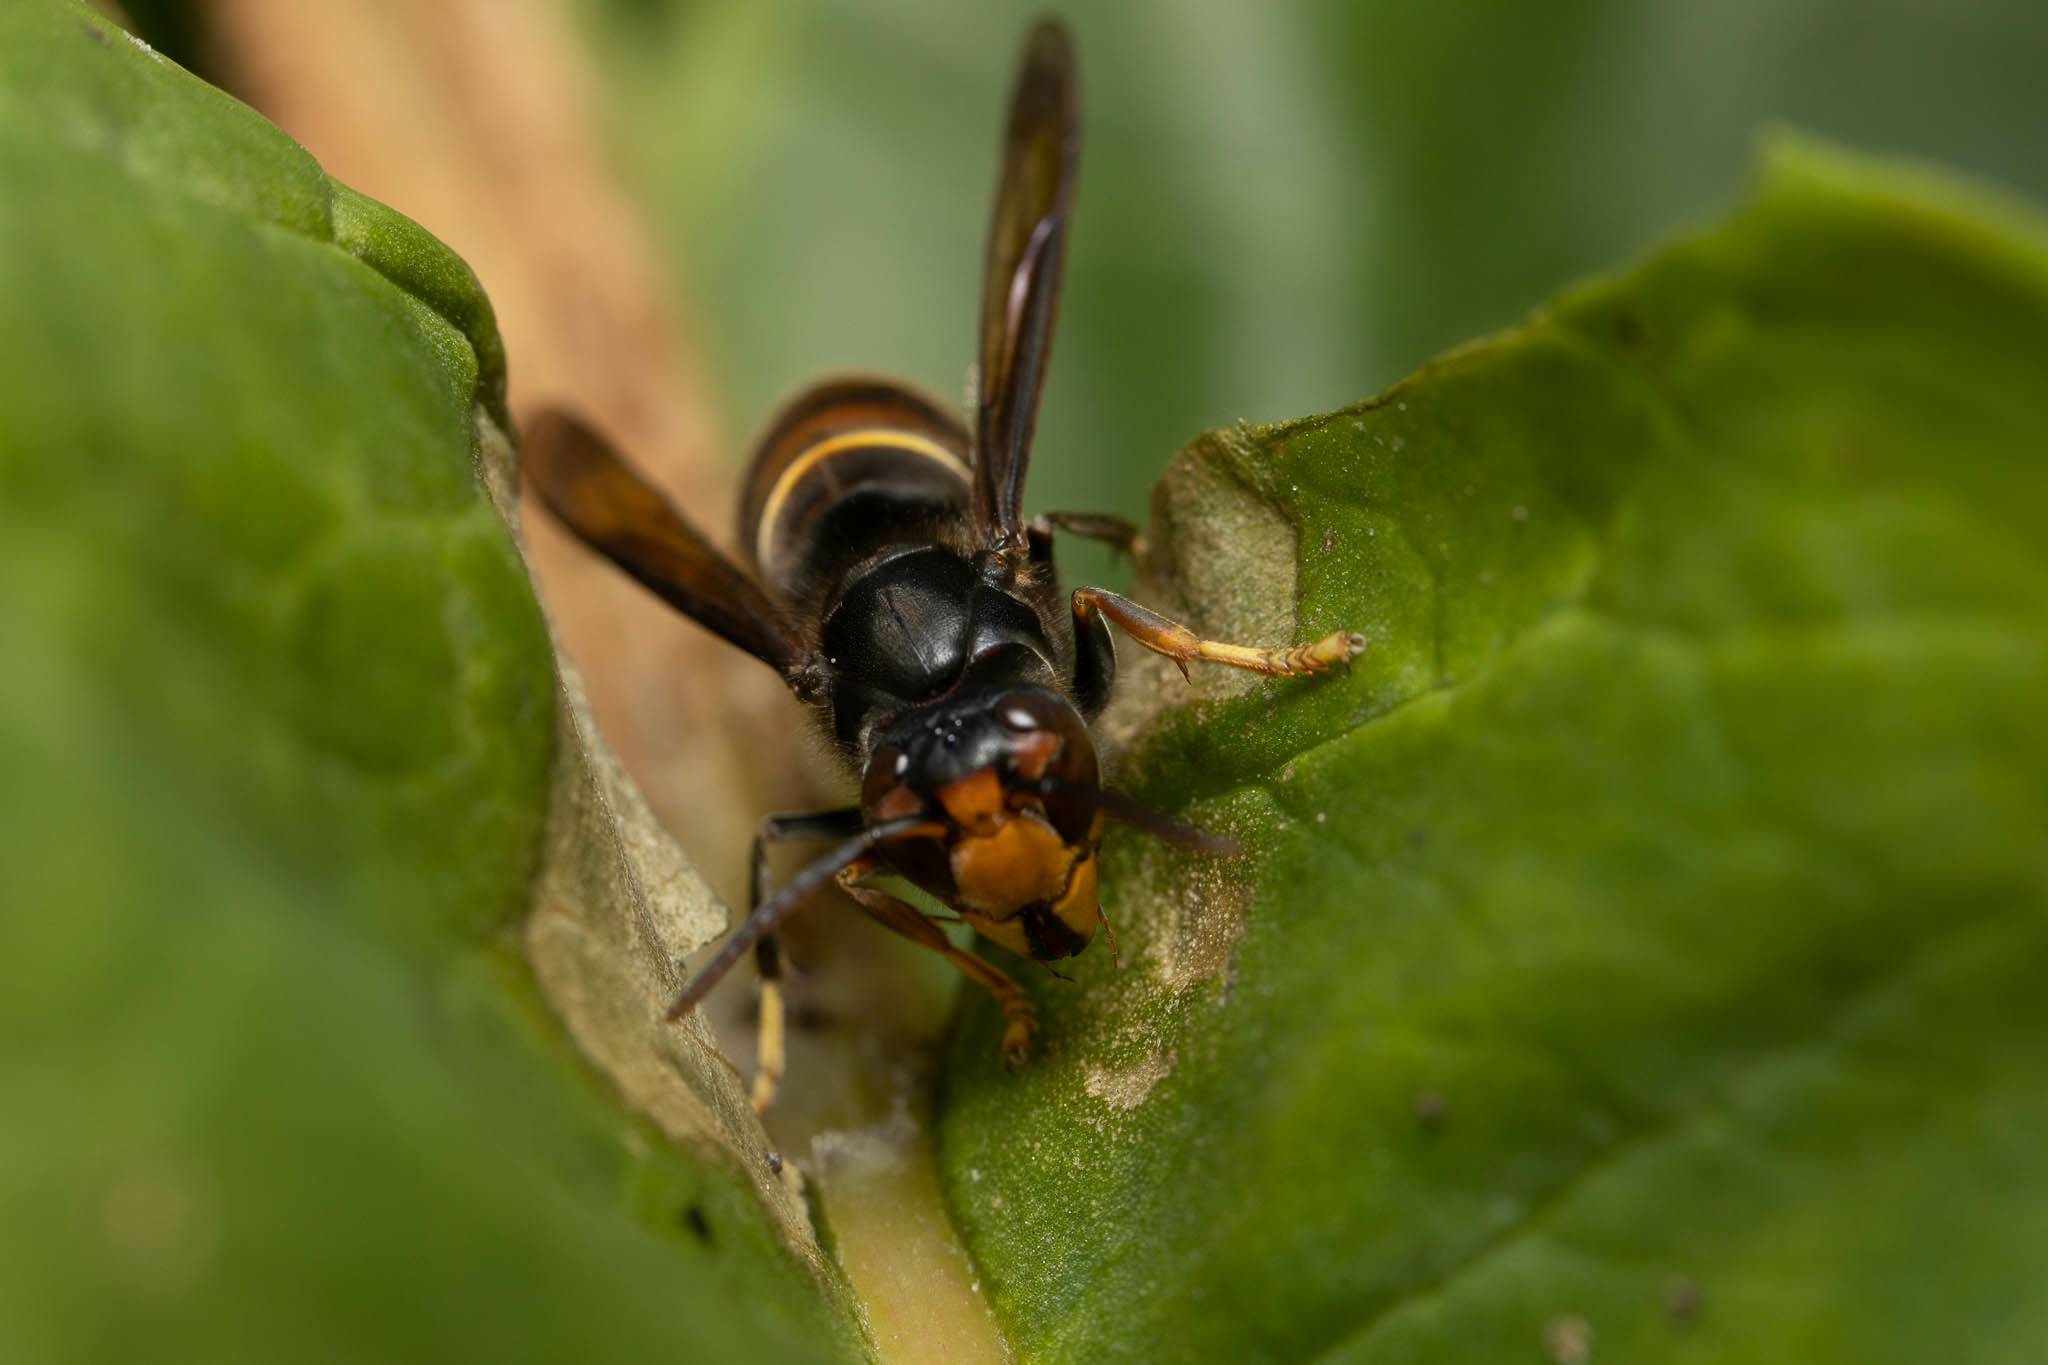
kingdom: Animalia
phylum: Arthropoda
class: Insecta
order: Hymenoptera
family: Vespidae
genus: Vespa
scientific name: Vespa velutina
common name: Asian hornet
